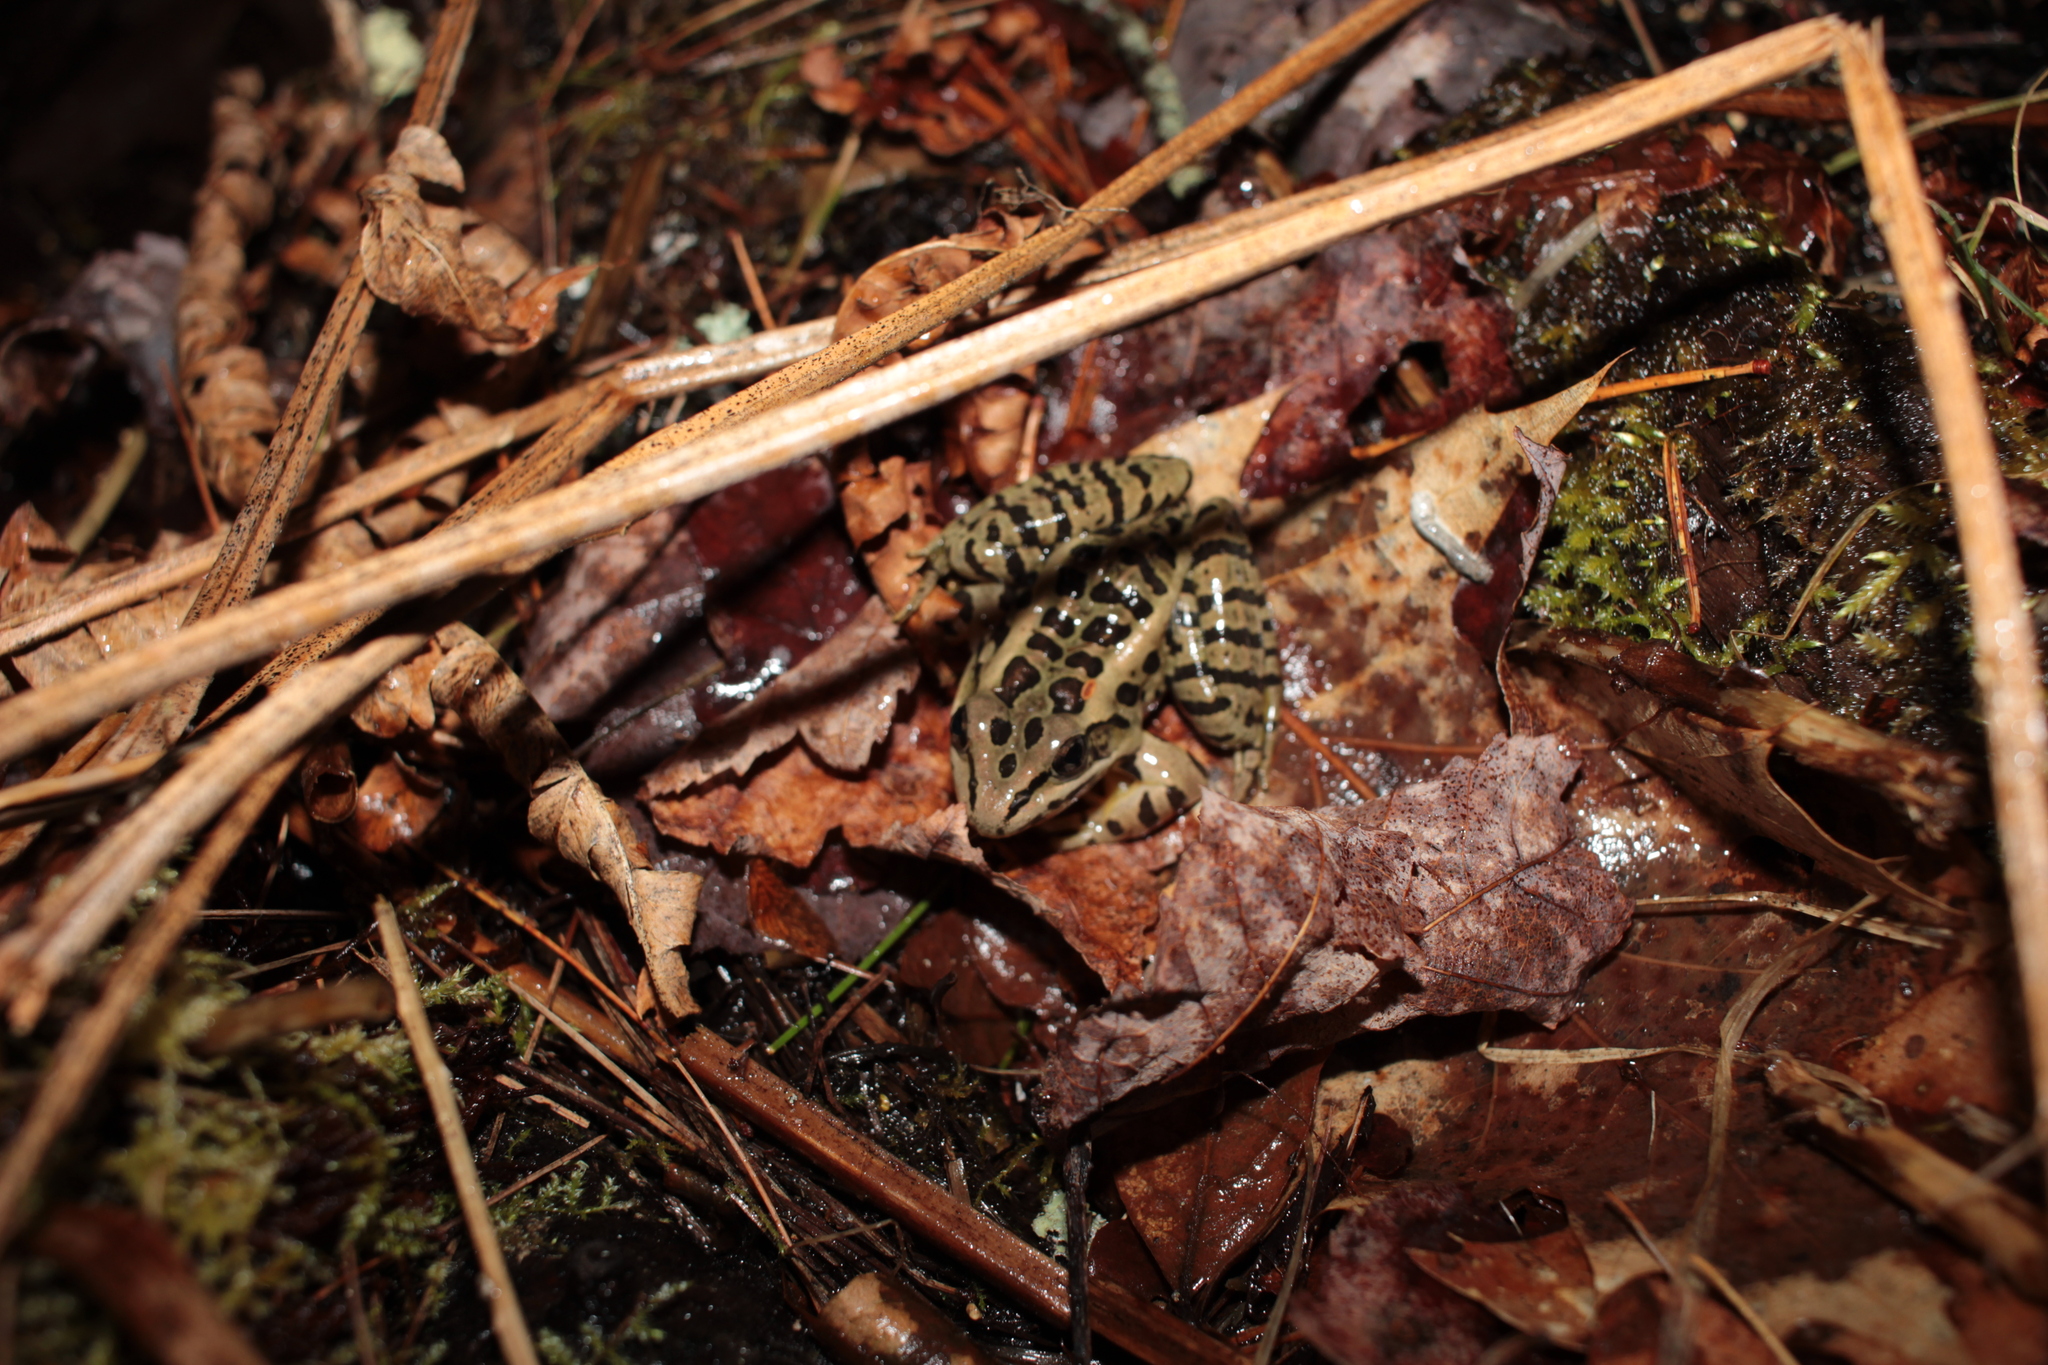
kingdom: Animalia
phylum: Chordata
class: Amphibia
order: Anura
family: Ranidae
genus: Lithobates
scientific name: Lithobates palustris
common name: Pickerel frog
